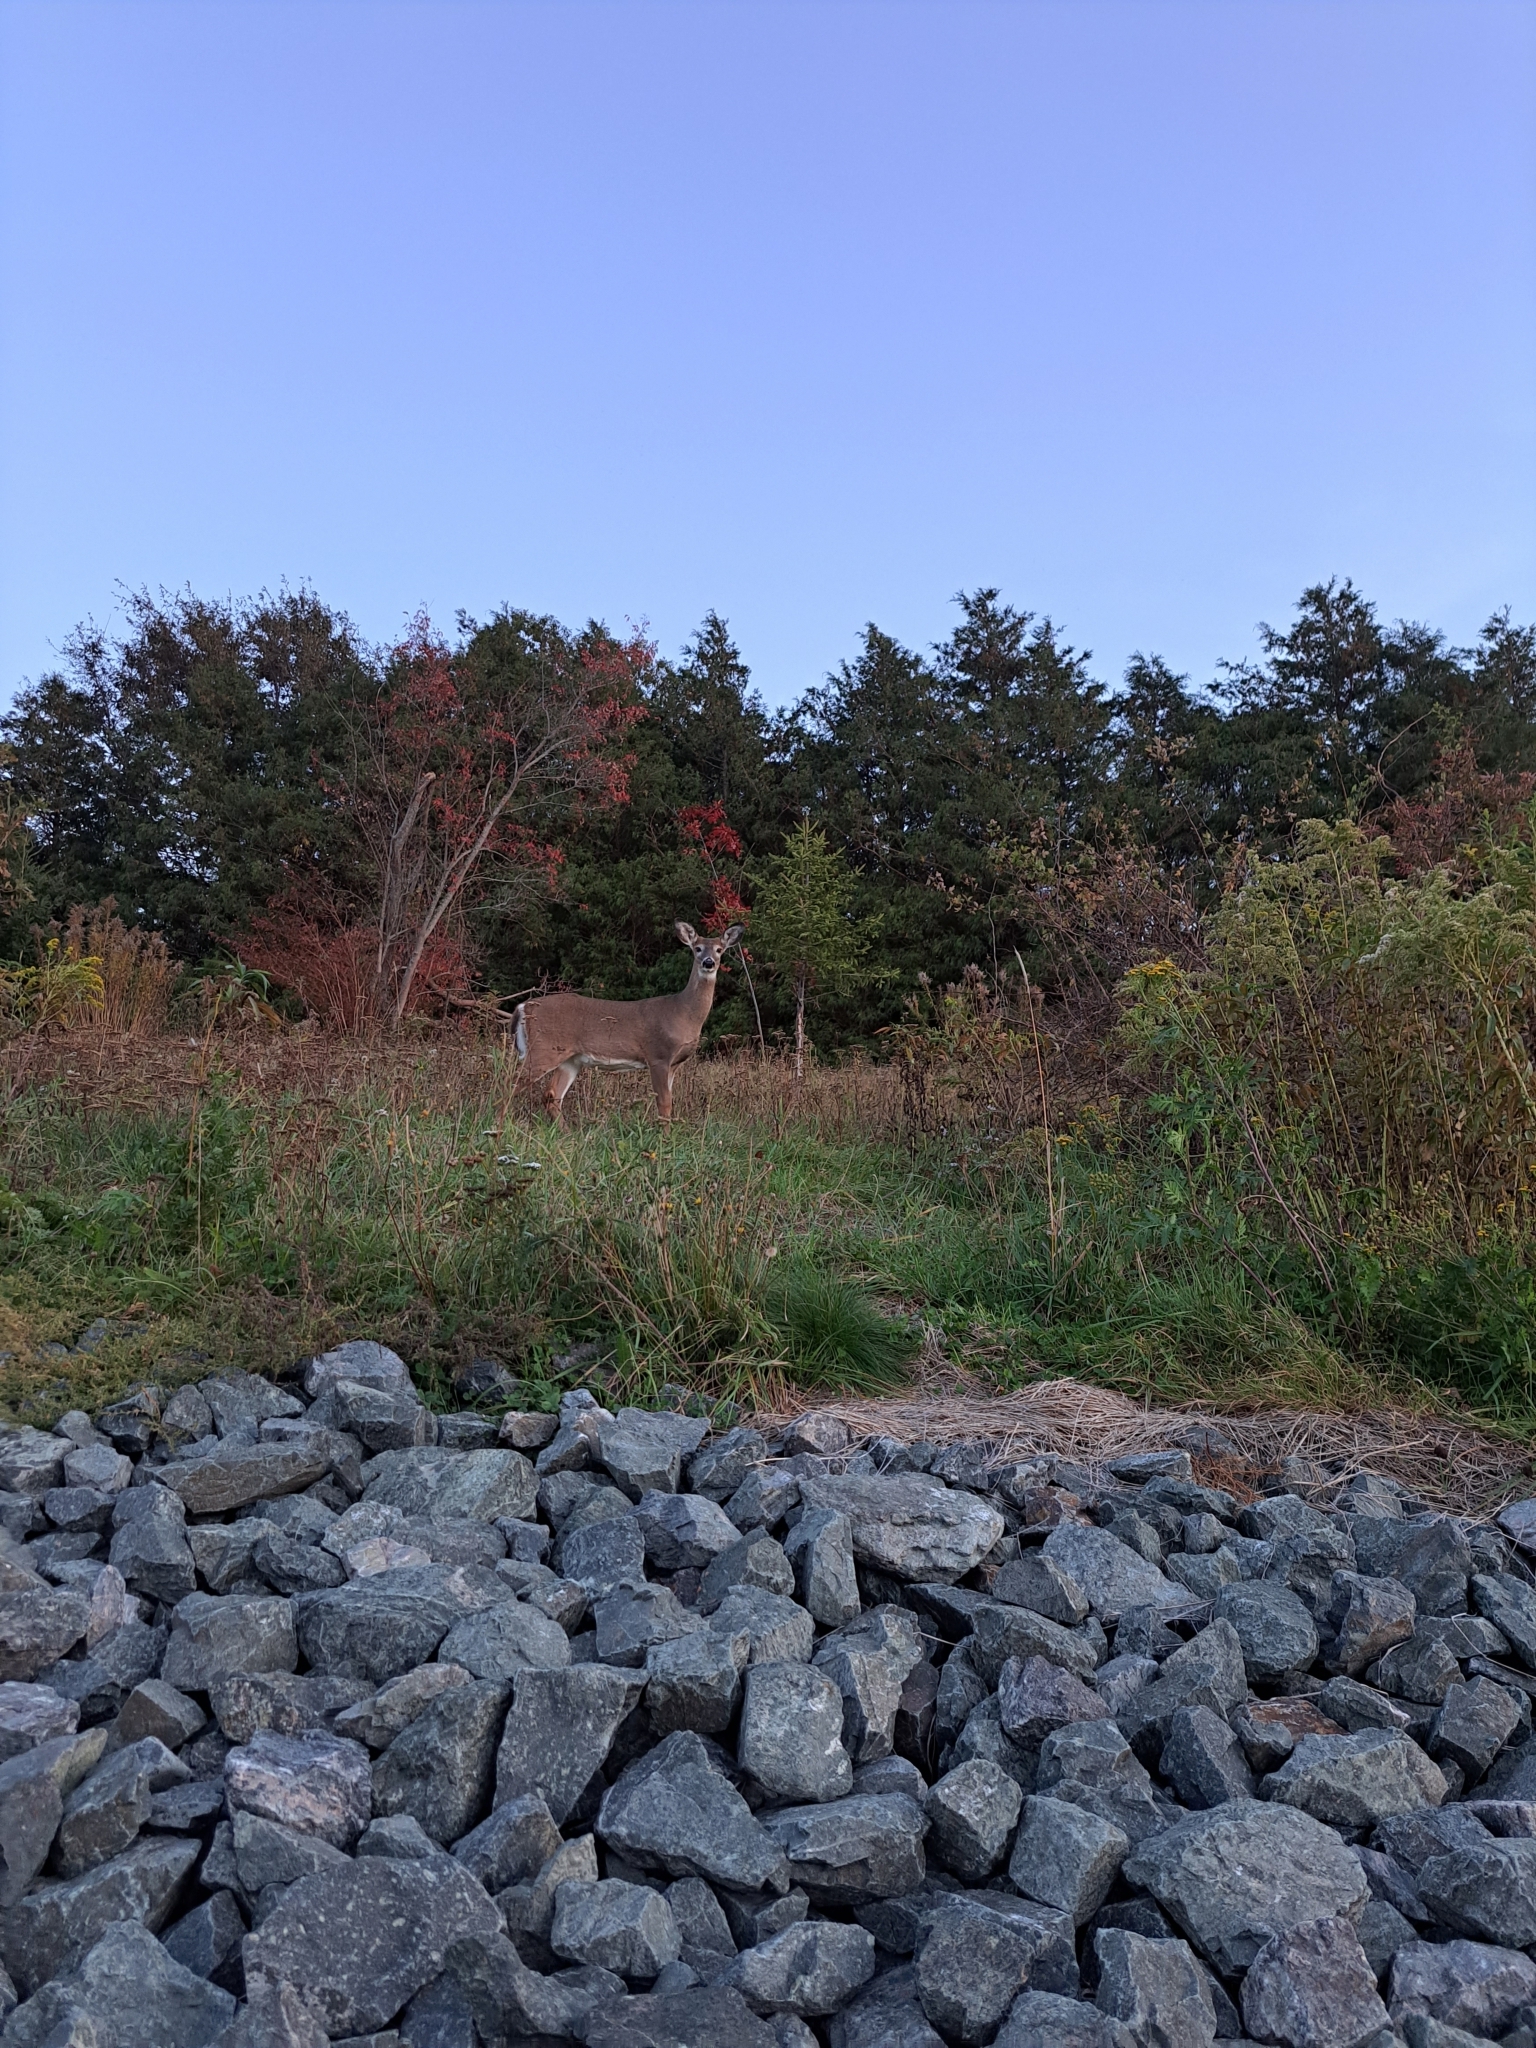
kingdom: Animalia
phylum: Chordata
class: Mammalia
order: Artiodactyla
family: Cervidae
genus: Odocoileus
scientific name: Odocoileus virginianus
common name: White-tailed deer
